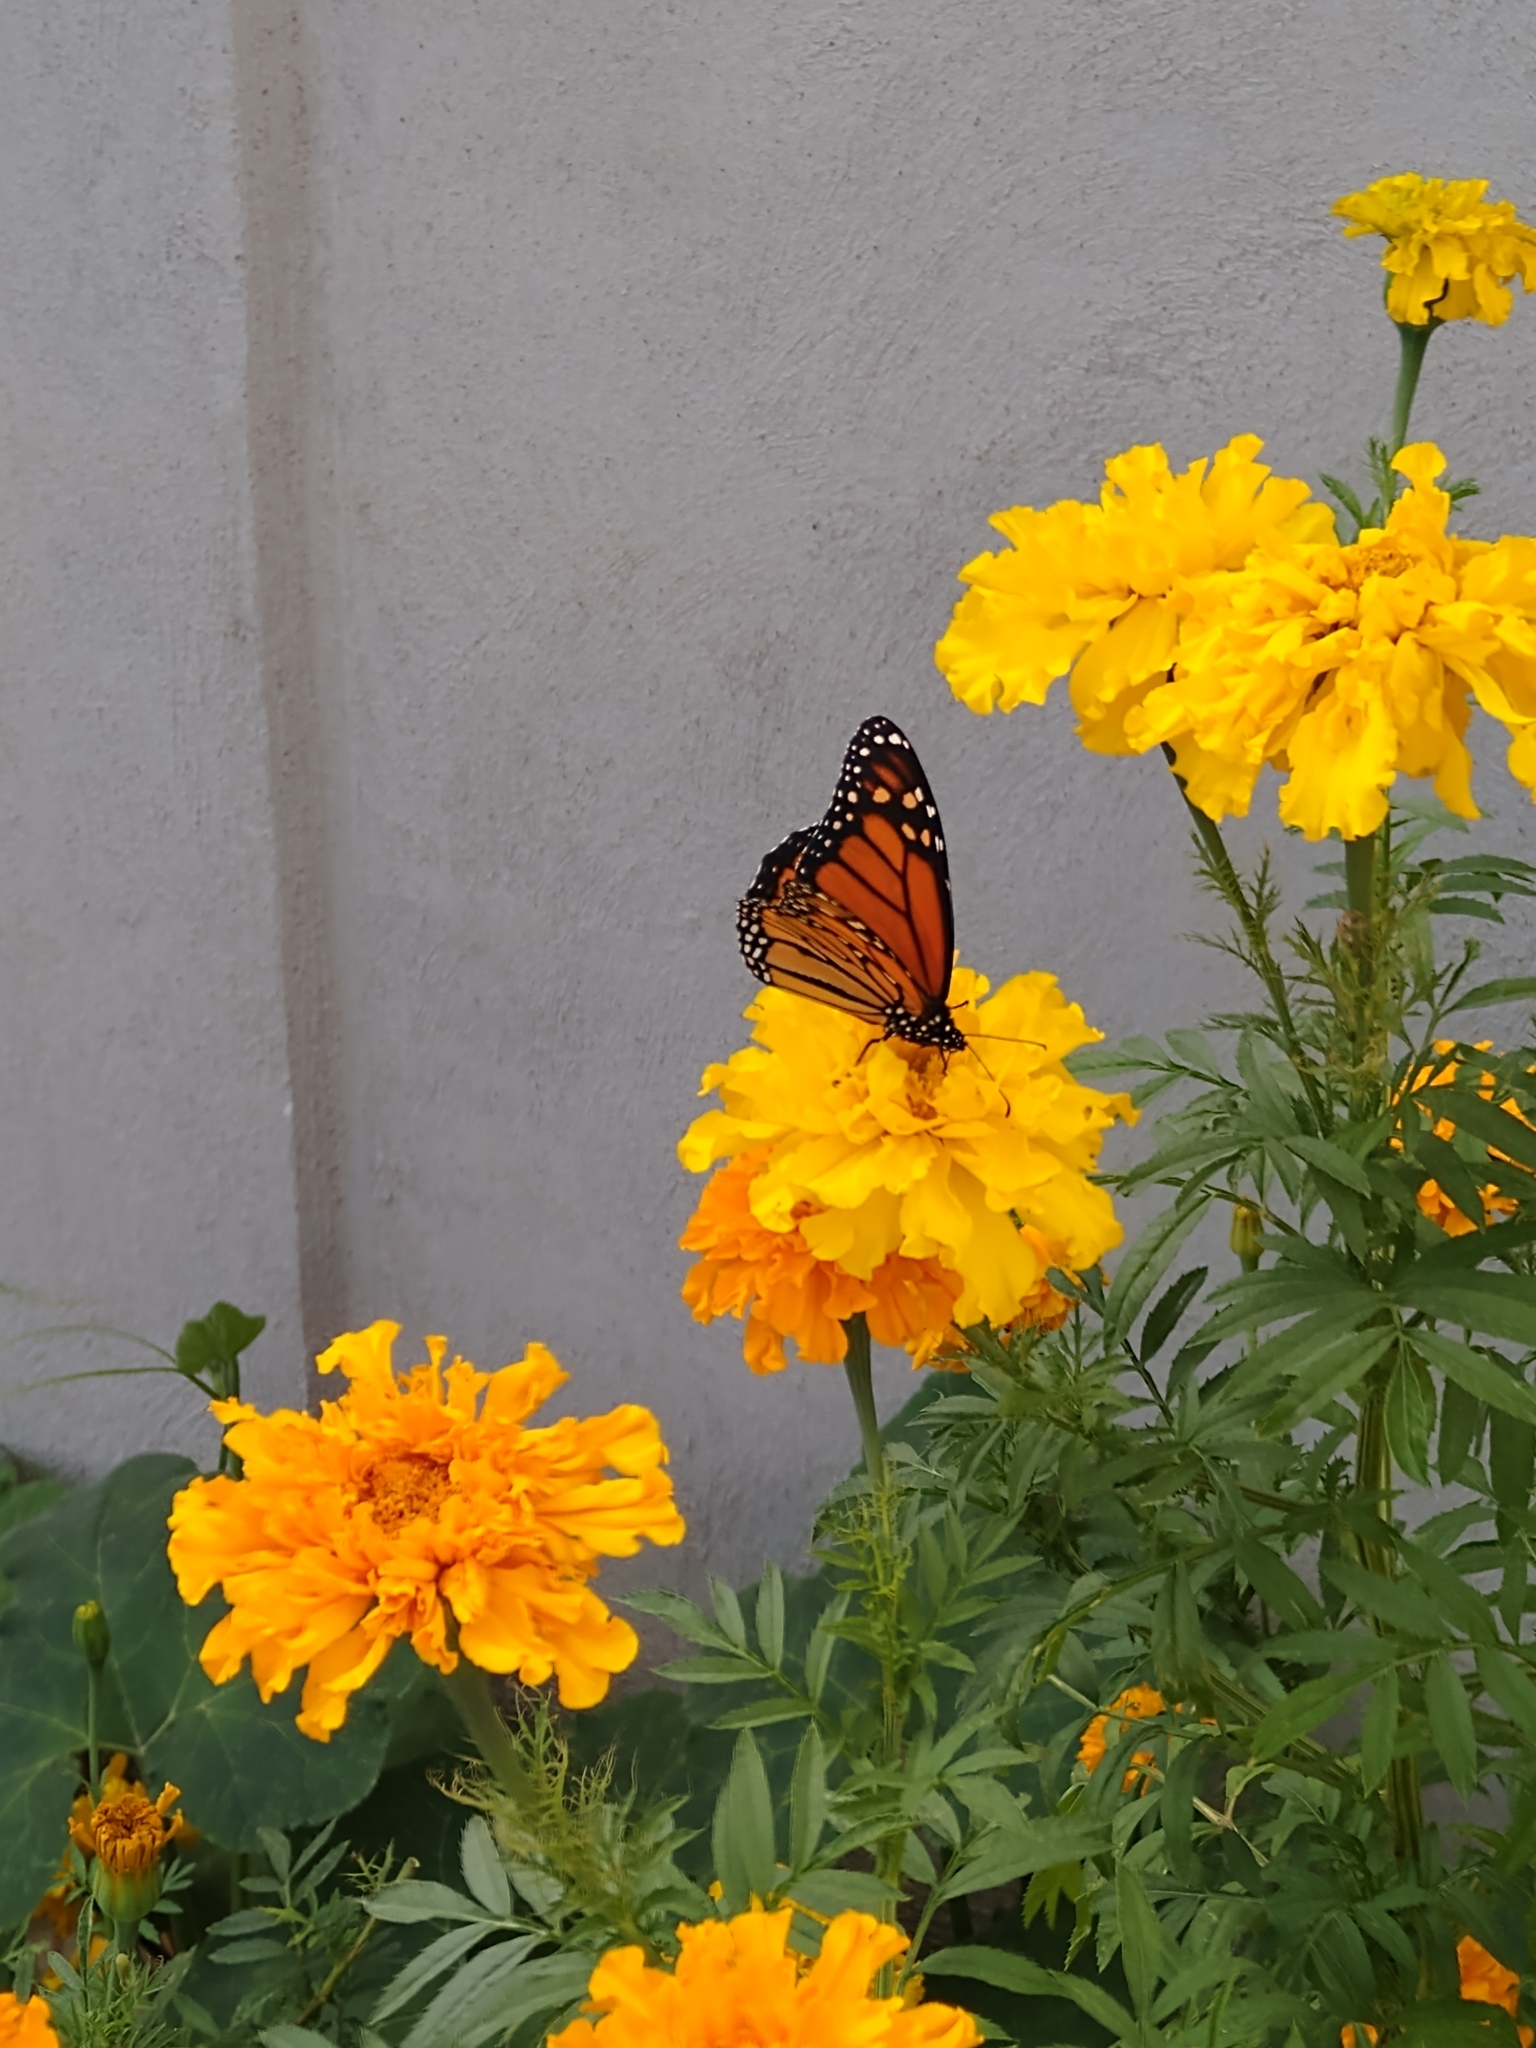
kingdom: Animalia
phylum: Arthropoda
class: Insecta
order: Lepidoptera
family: Nymphalidae
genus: Danaus
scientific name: Danaus plexippus
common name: Monarch
